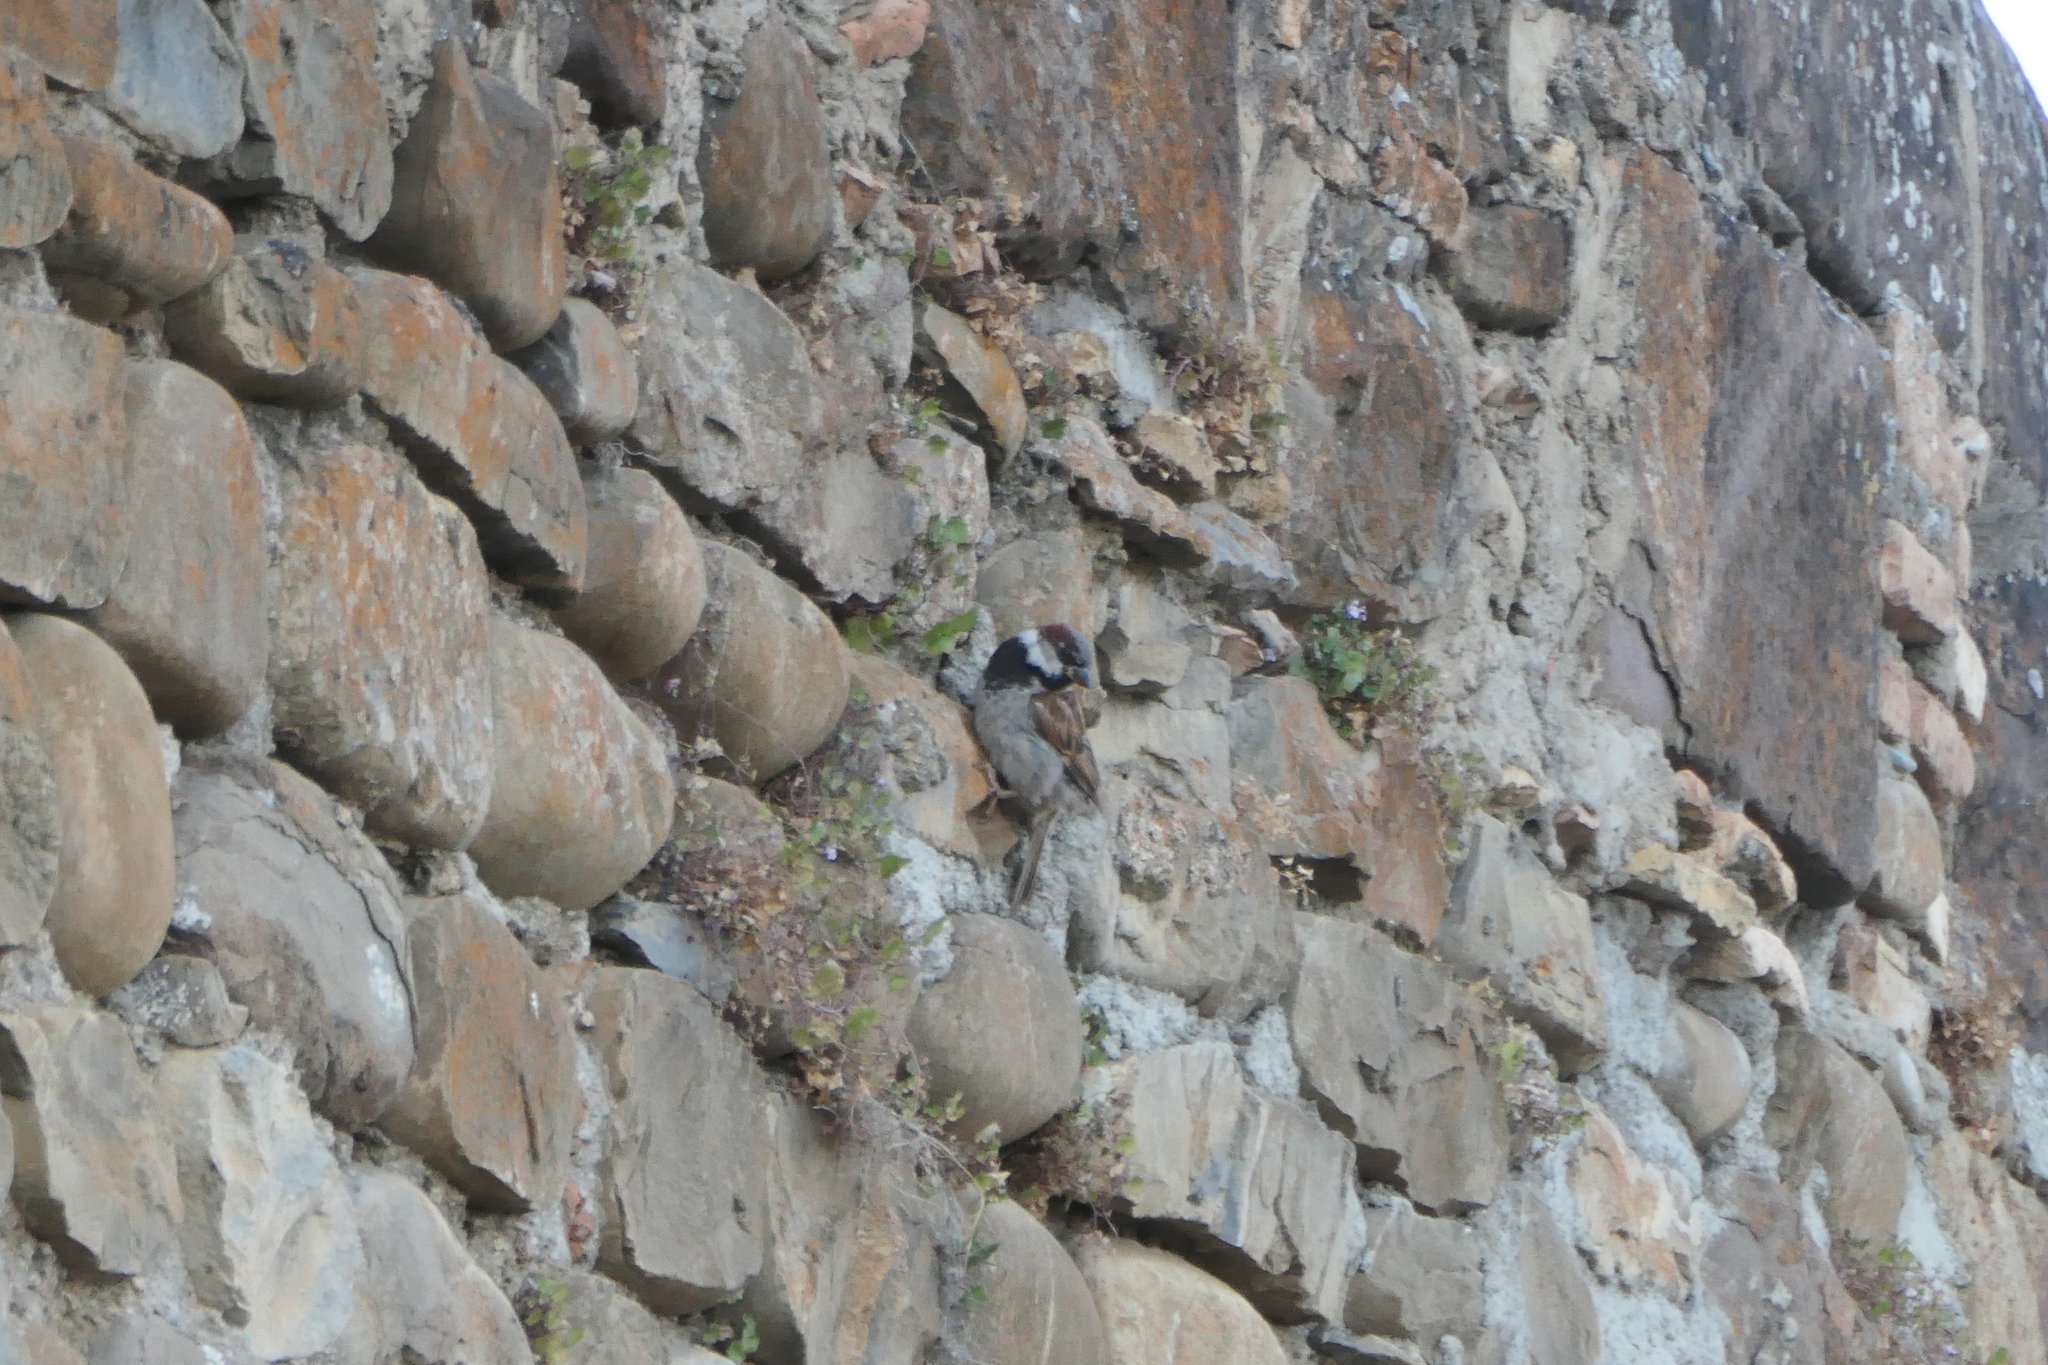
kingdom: Animalia
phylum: Chordata
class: Aves
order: Passeriformes
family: Passeridae
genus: Passer
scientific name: Passer domesticus
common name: House sparrow
